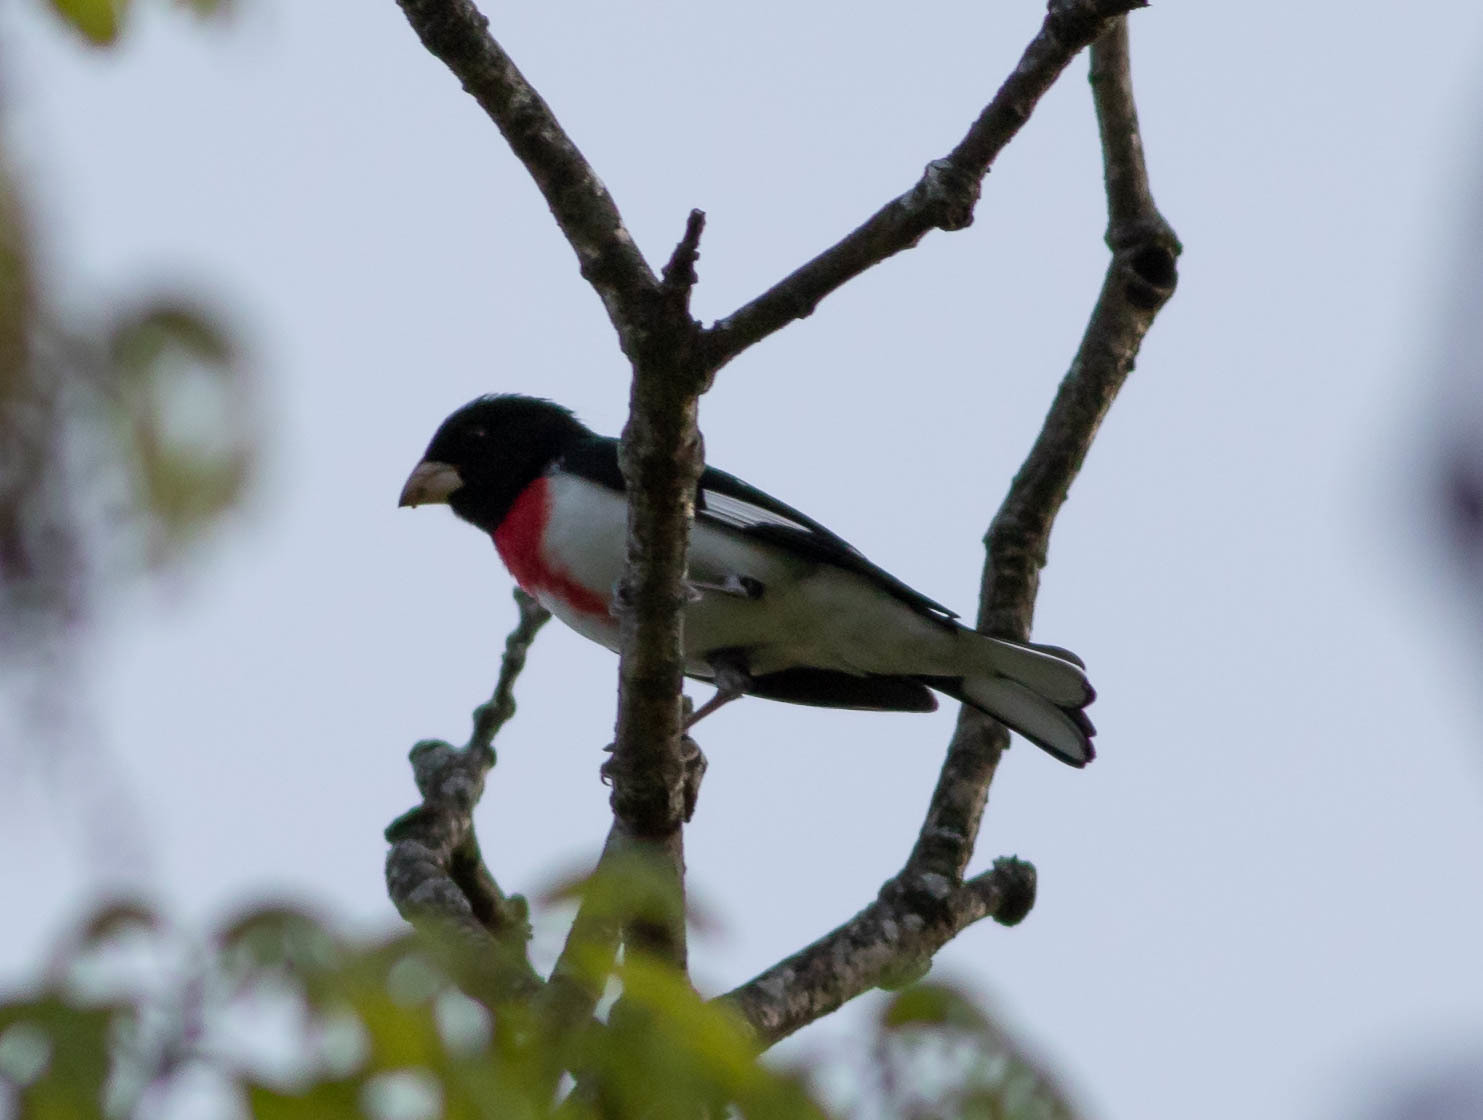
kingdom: Animalia
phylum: Chordata
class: Aves
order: Passeriformes
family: Cardinalidae
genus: Pheucticus
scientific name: Pheucticus ludovicianus
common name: Rose-breasted grosbeak
